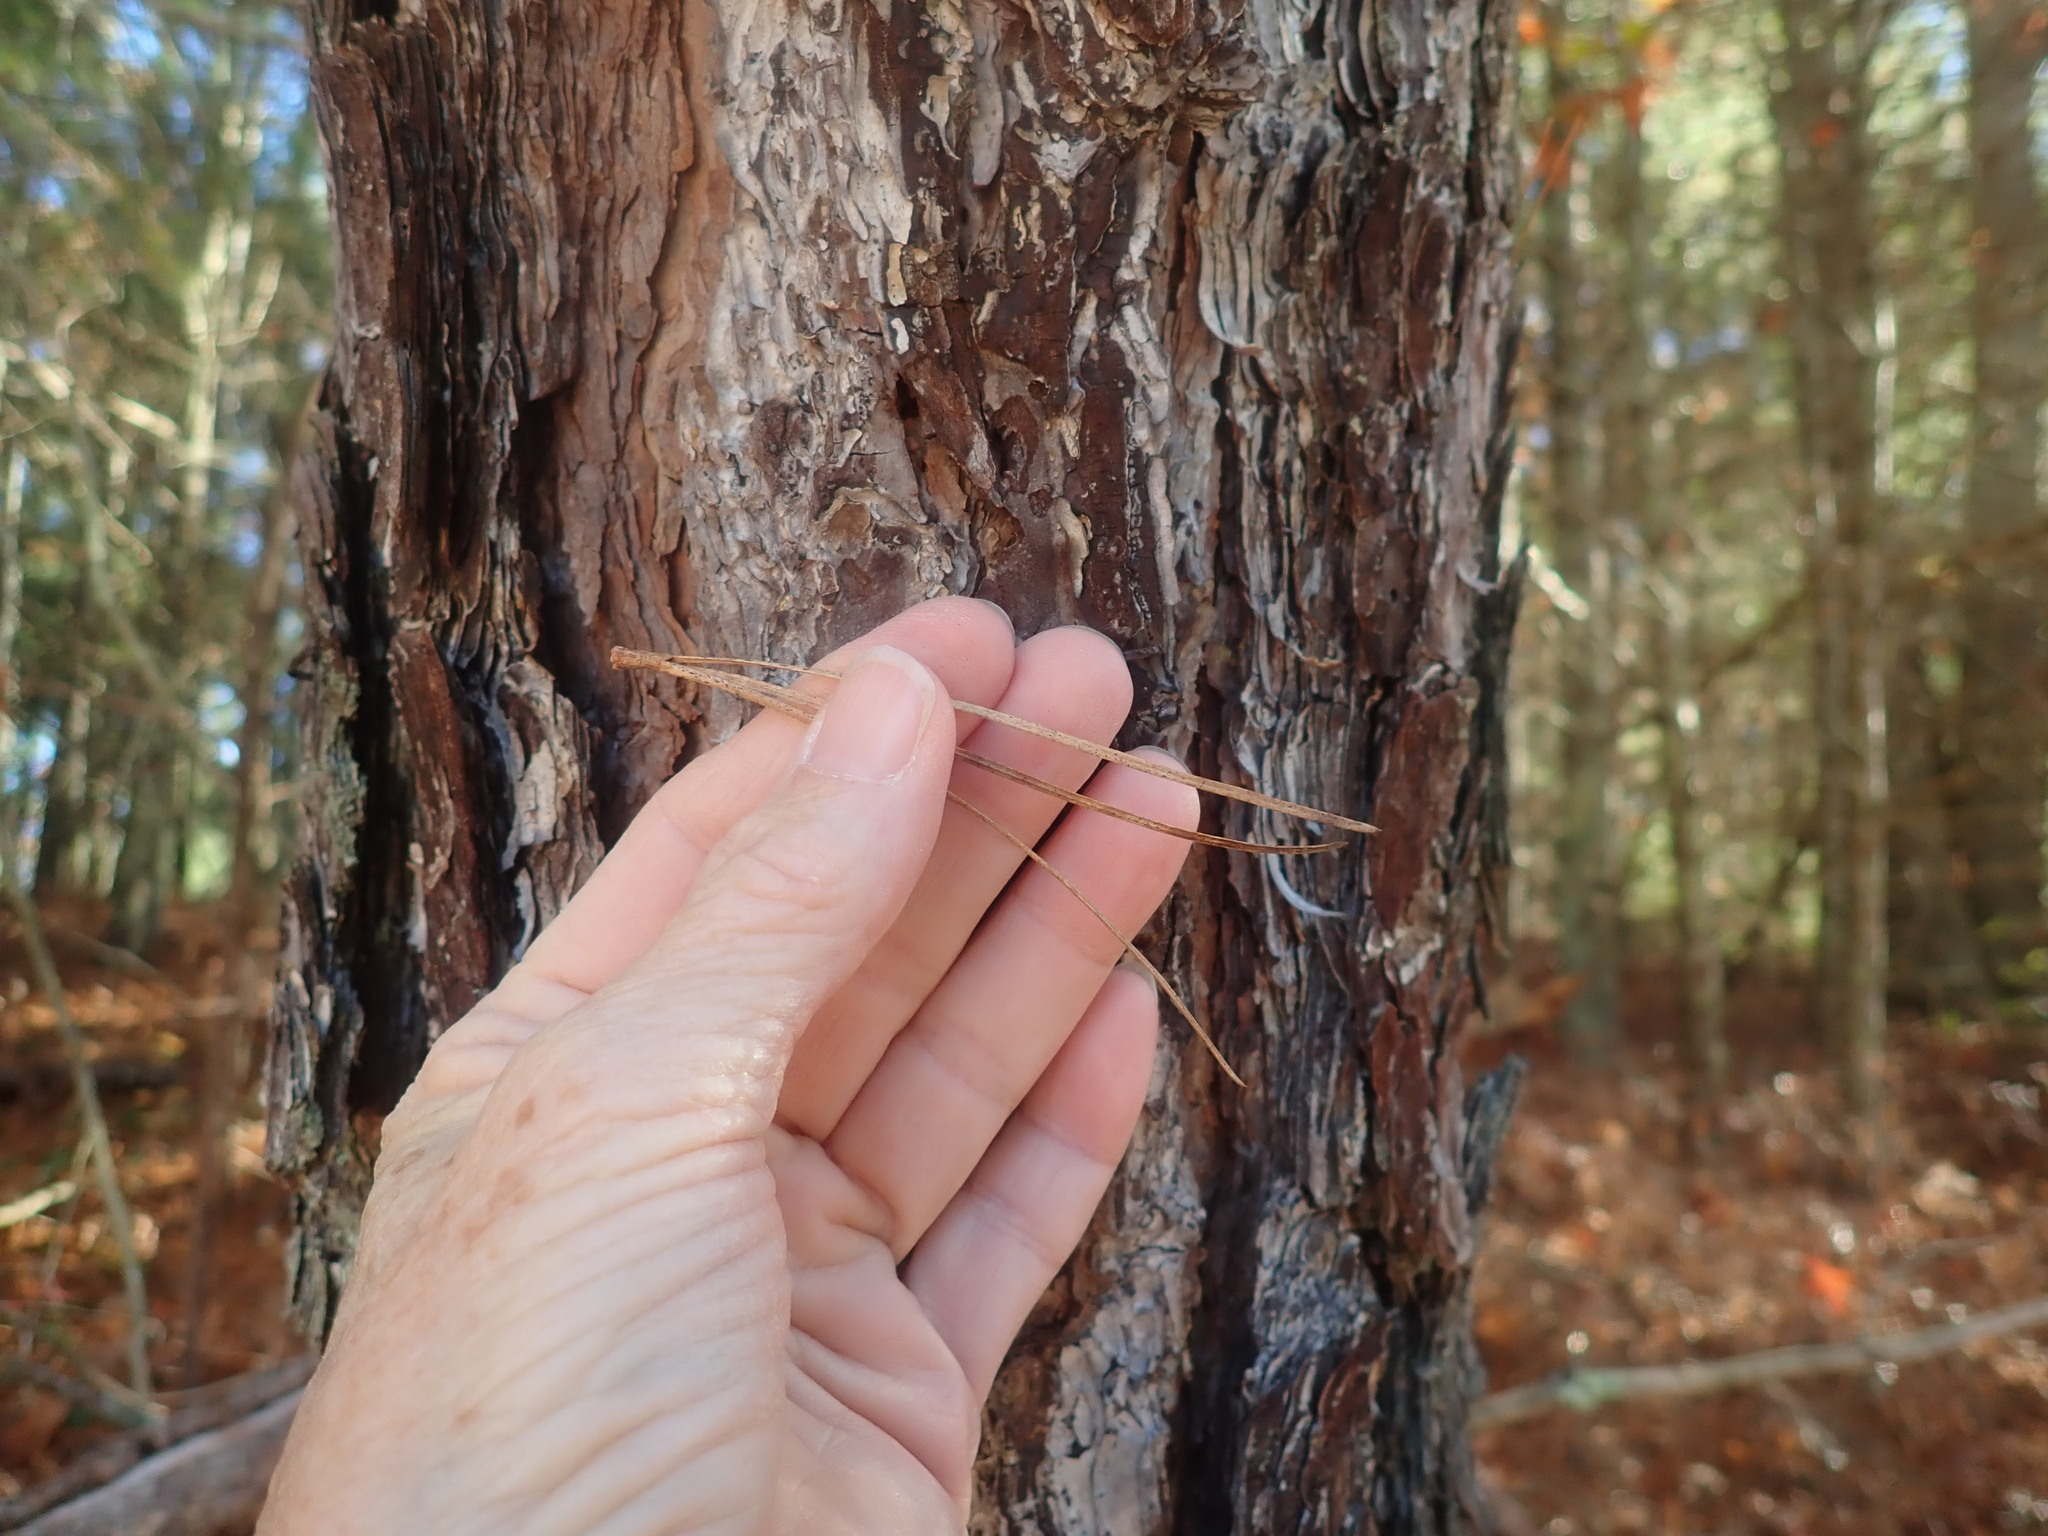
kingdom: Plantae
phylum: Tracheophyta
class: Pinopsida
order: Pinales
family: Pinaceae
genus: Pinus
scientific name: Pinus rigida
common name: Pitch pine
